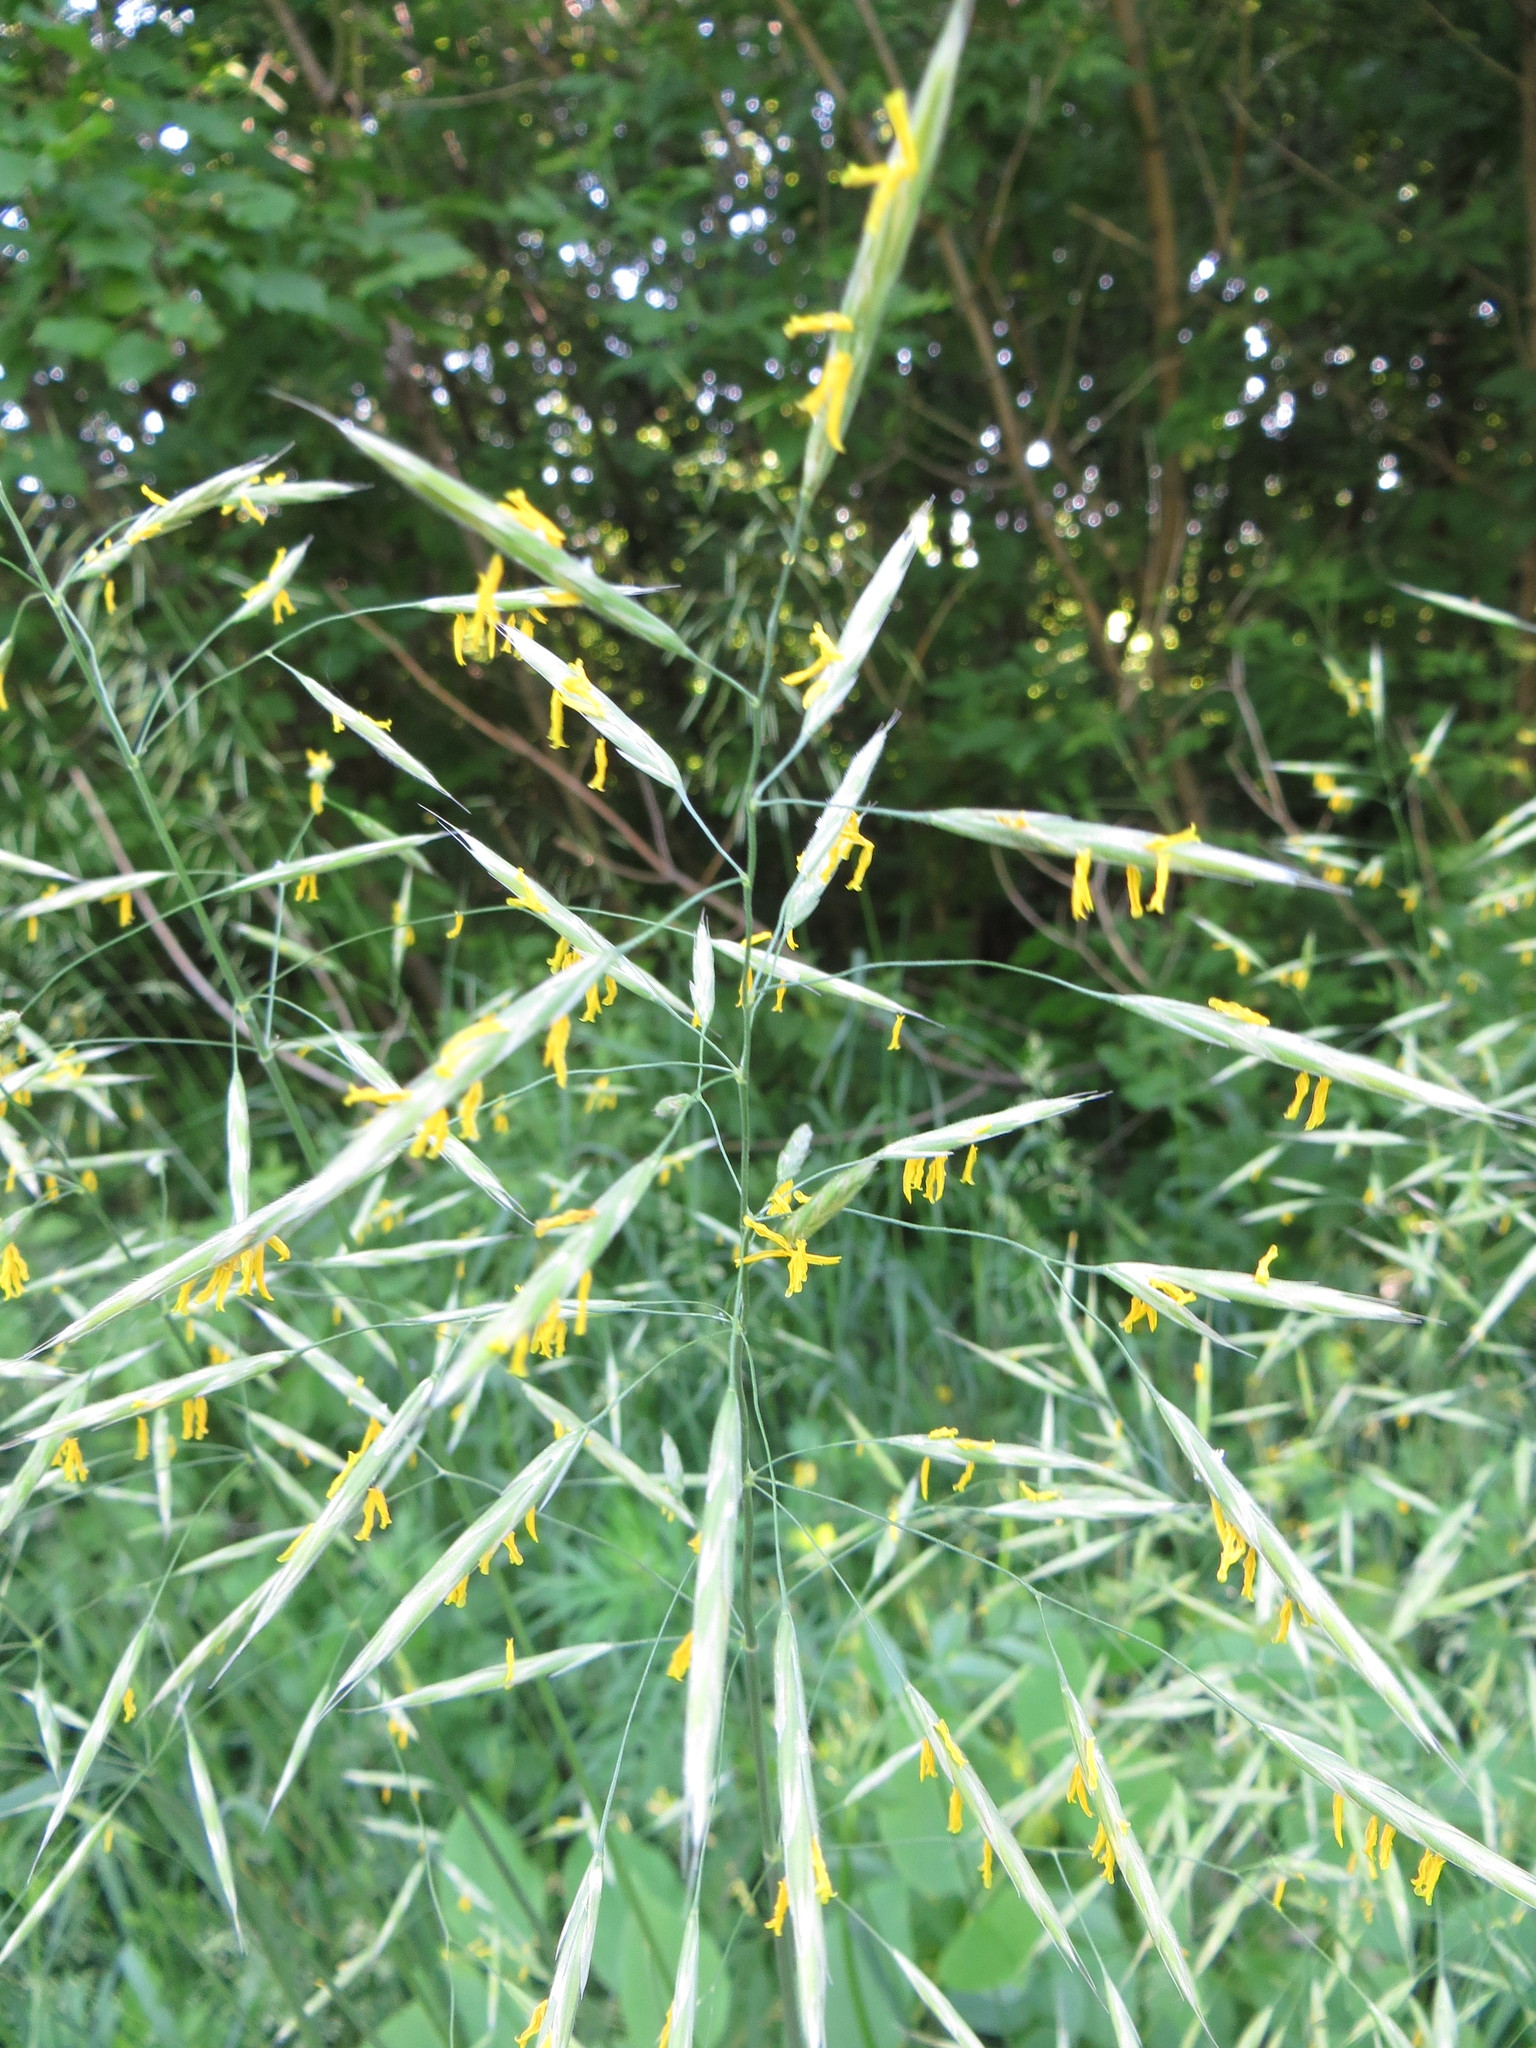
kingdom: Plantae
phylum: Tracheophyta
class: Liliopsida
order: Poales
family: Poaceae
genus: Bromus
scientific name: Bromus inermis
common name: Smooth brome
